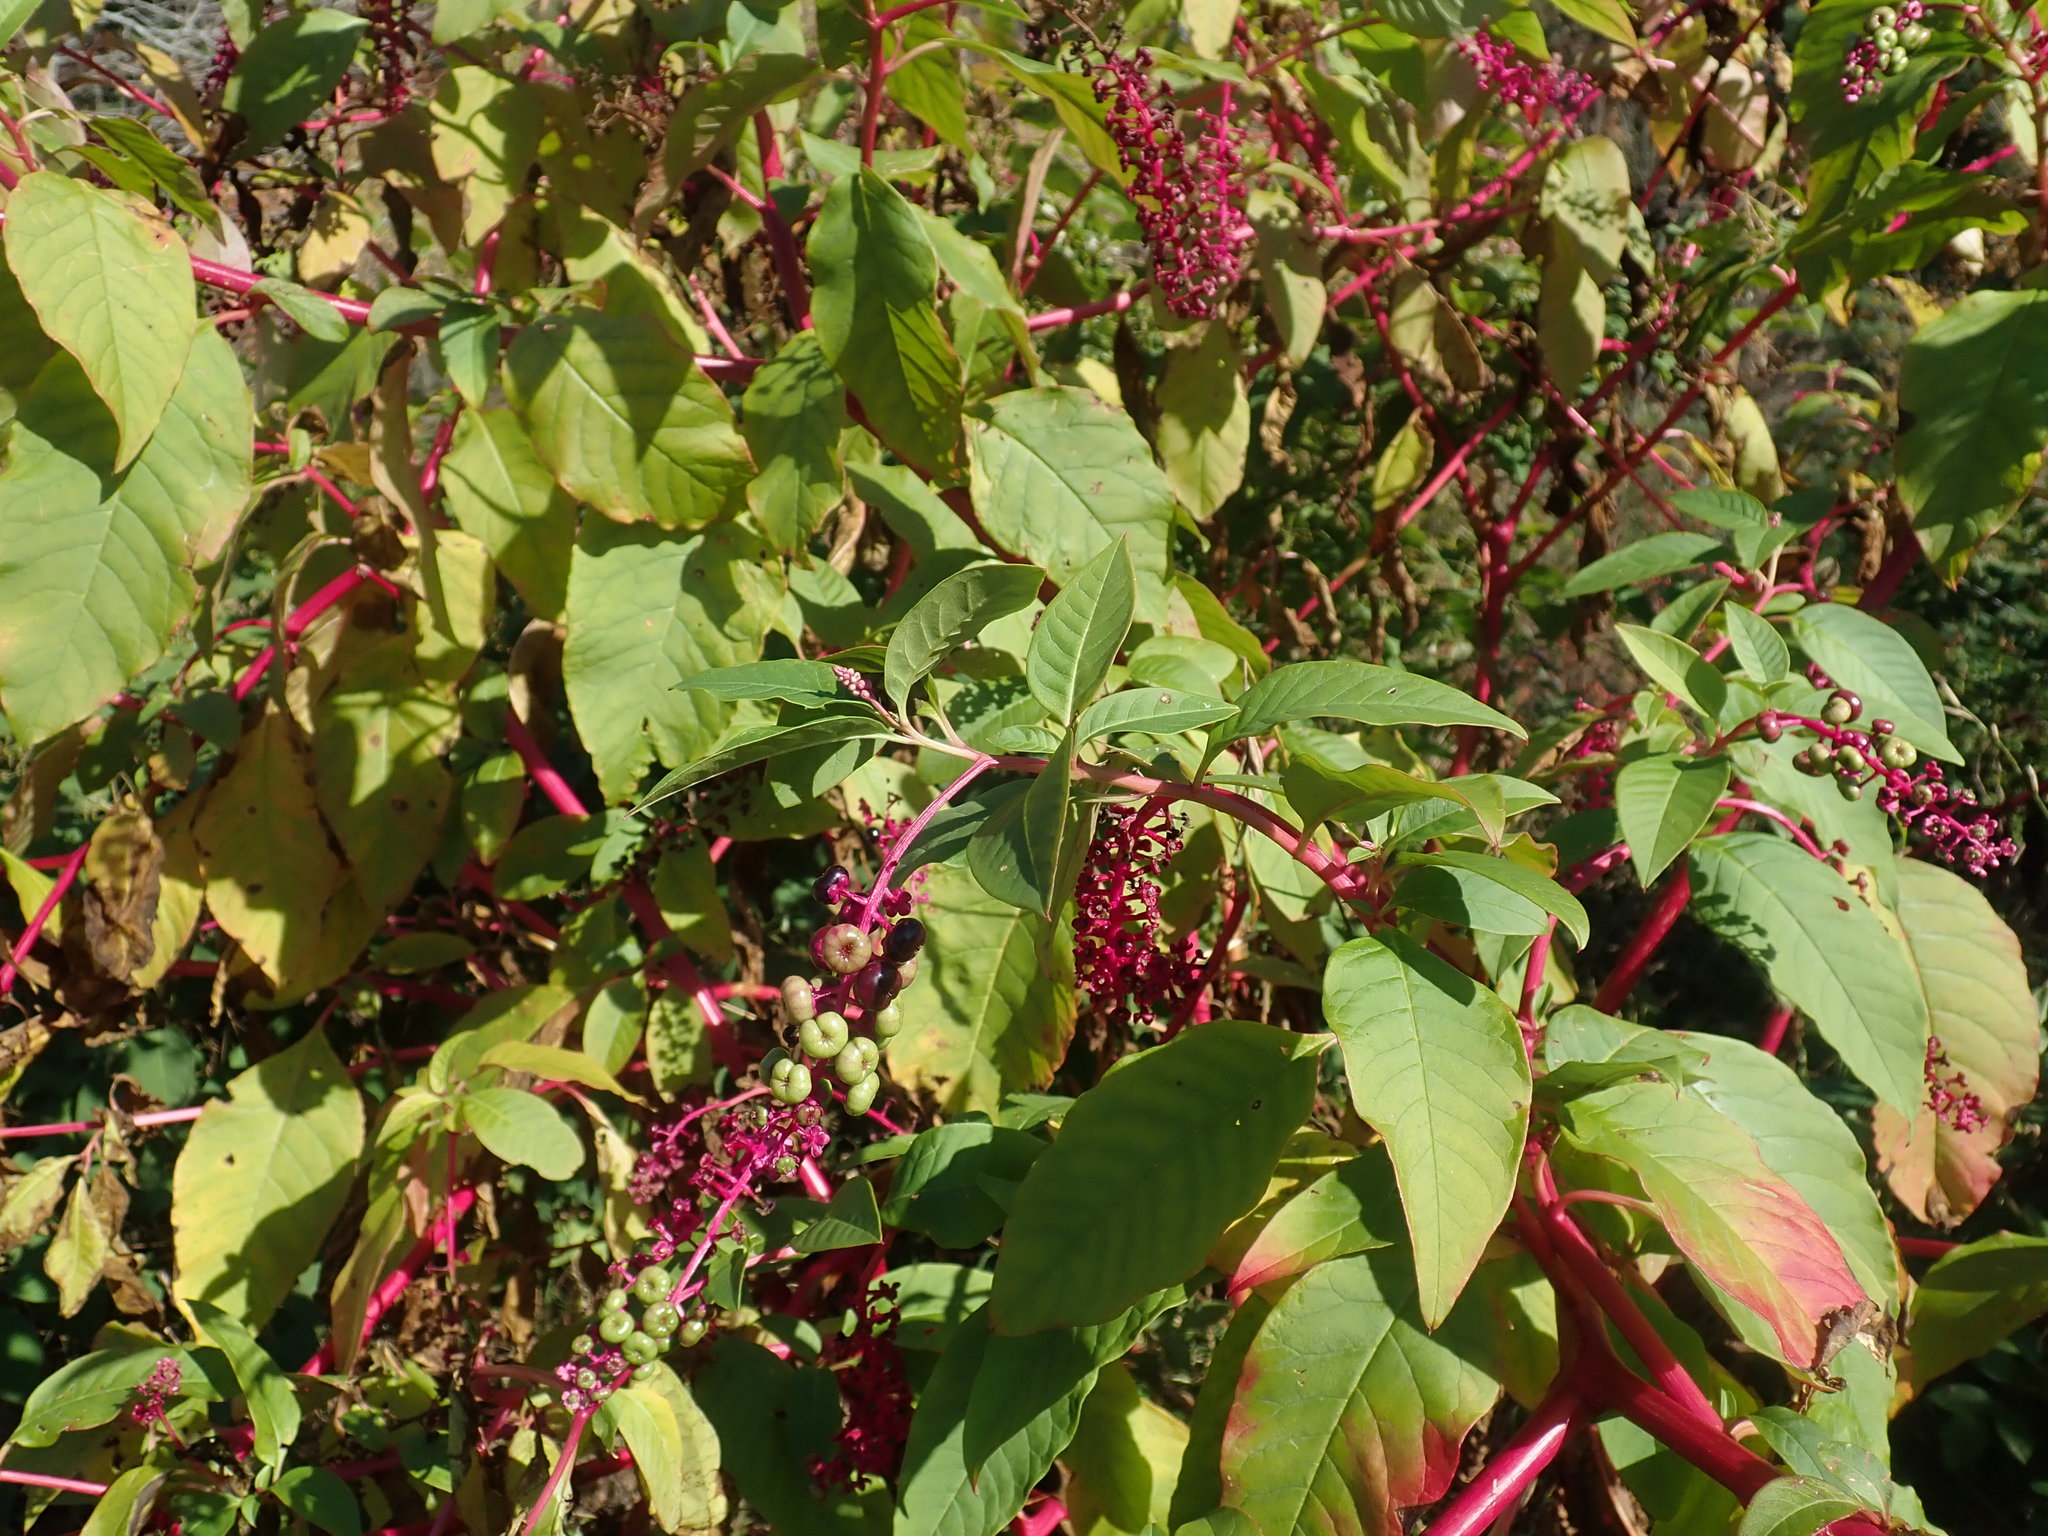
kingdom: Plantae
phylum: Tracheophyta
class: Magnoliopsida
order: Caryophyllales
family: Phytolaccaceae
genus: Phytolacca
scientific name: Phytolacca americana
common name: American pokeweed
